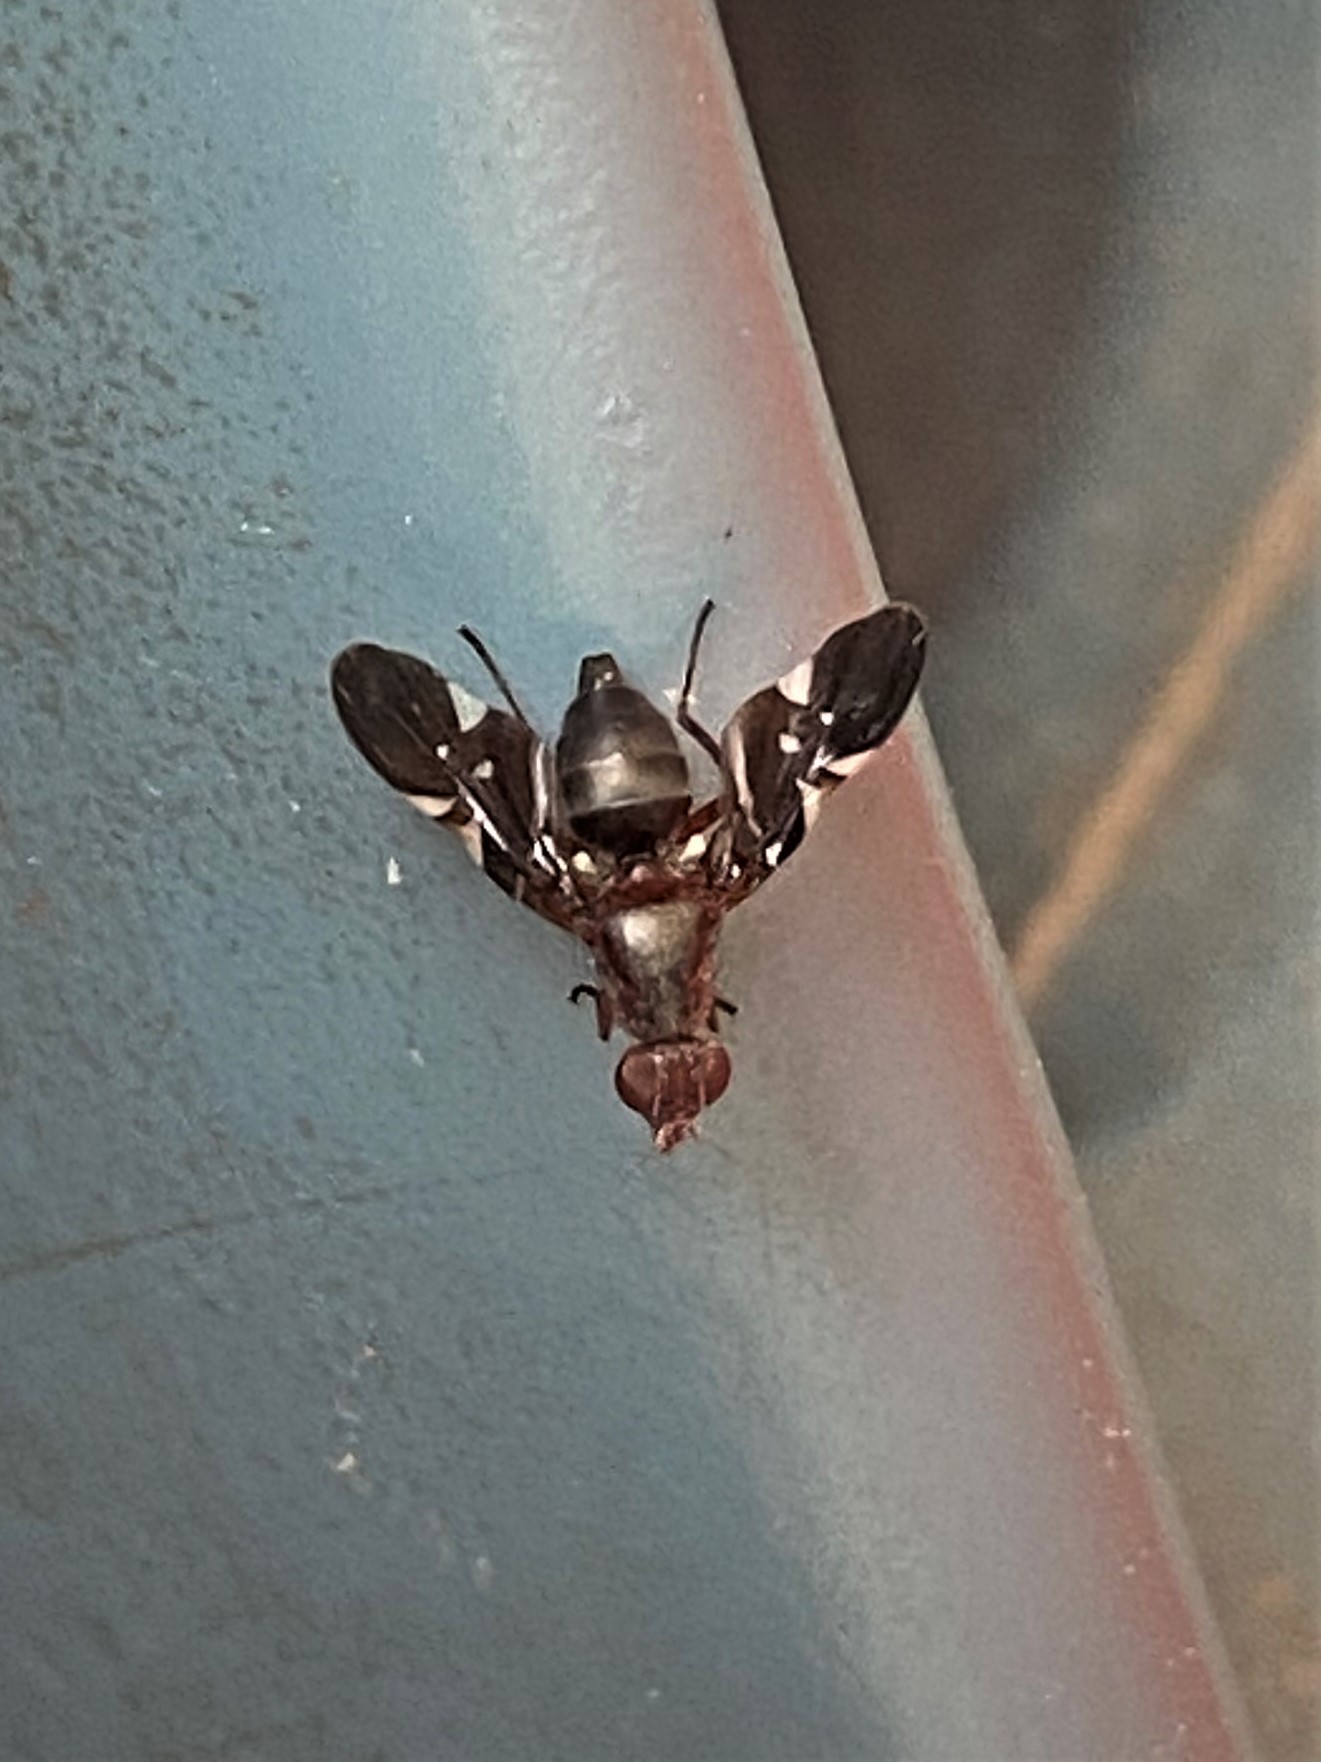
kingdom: Animalia
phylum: Arthropoda
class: Insecta
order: Diptera
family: Ulidiidae
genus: Delphinia
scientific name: Delphinia picta
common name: Common picture-winged fly
